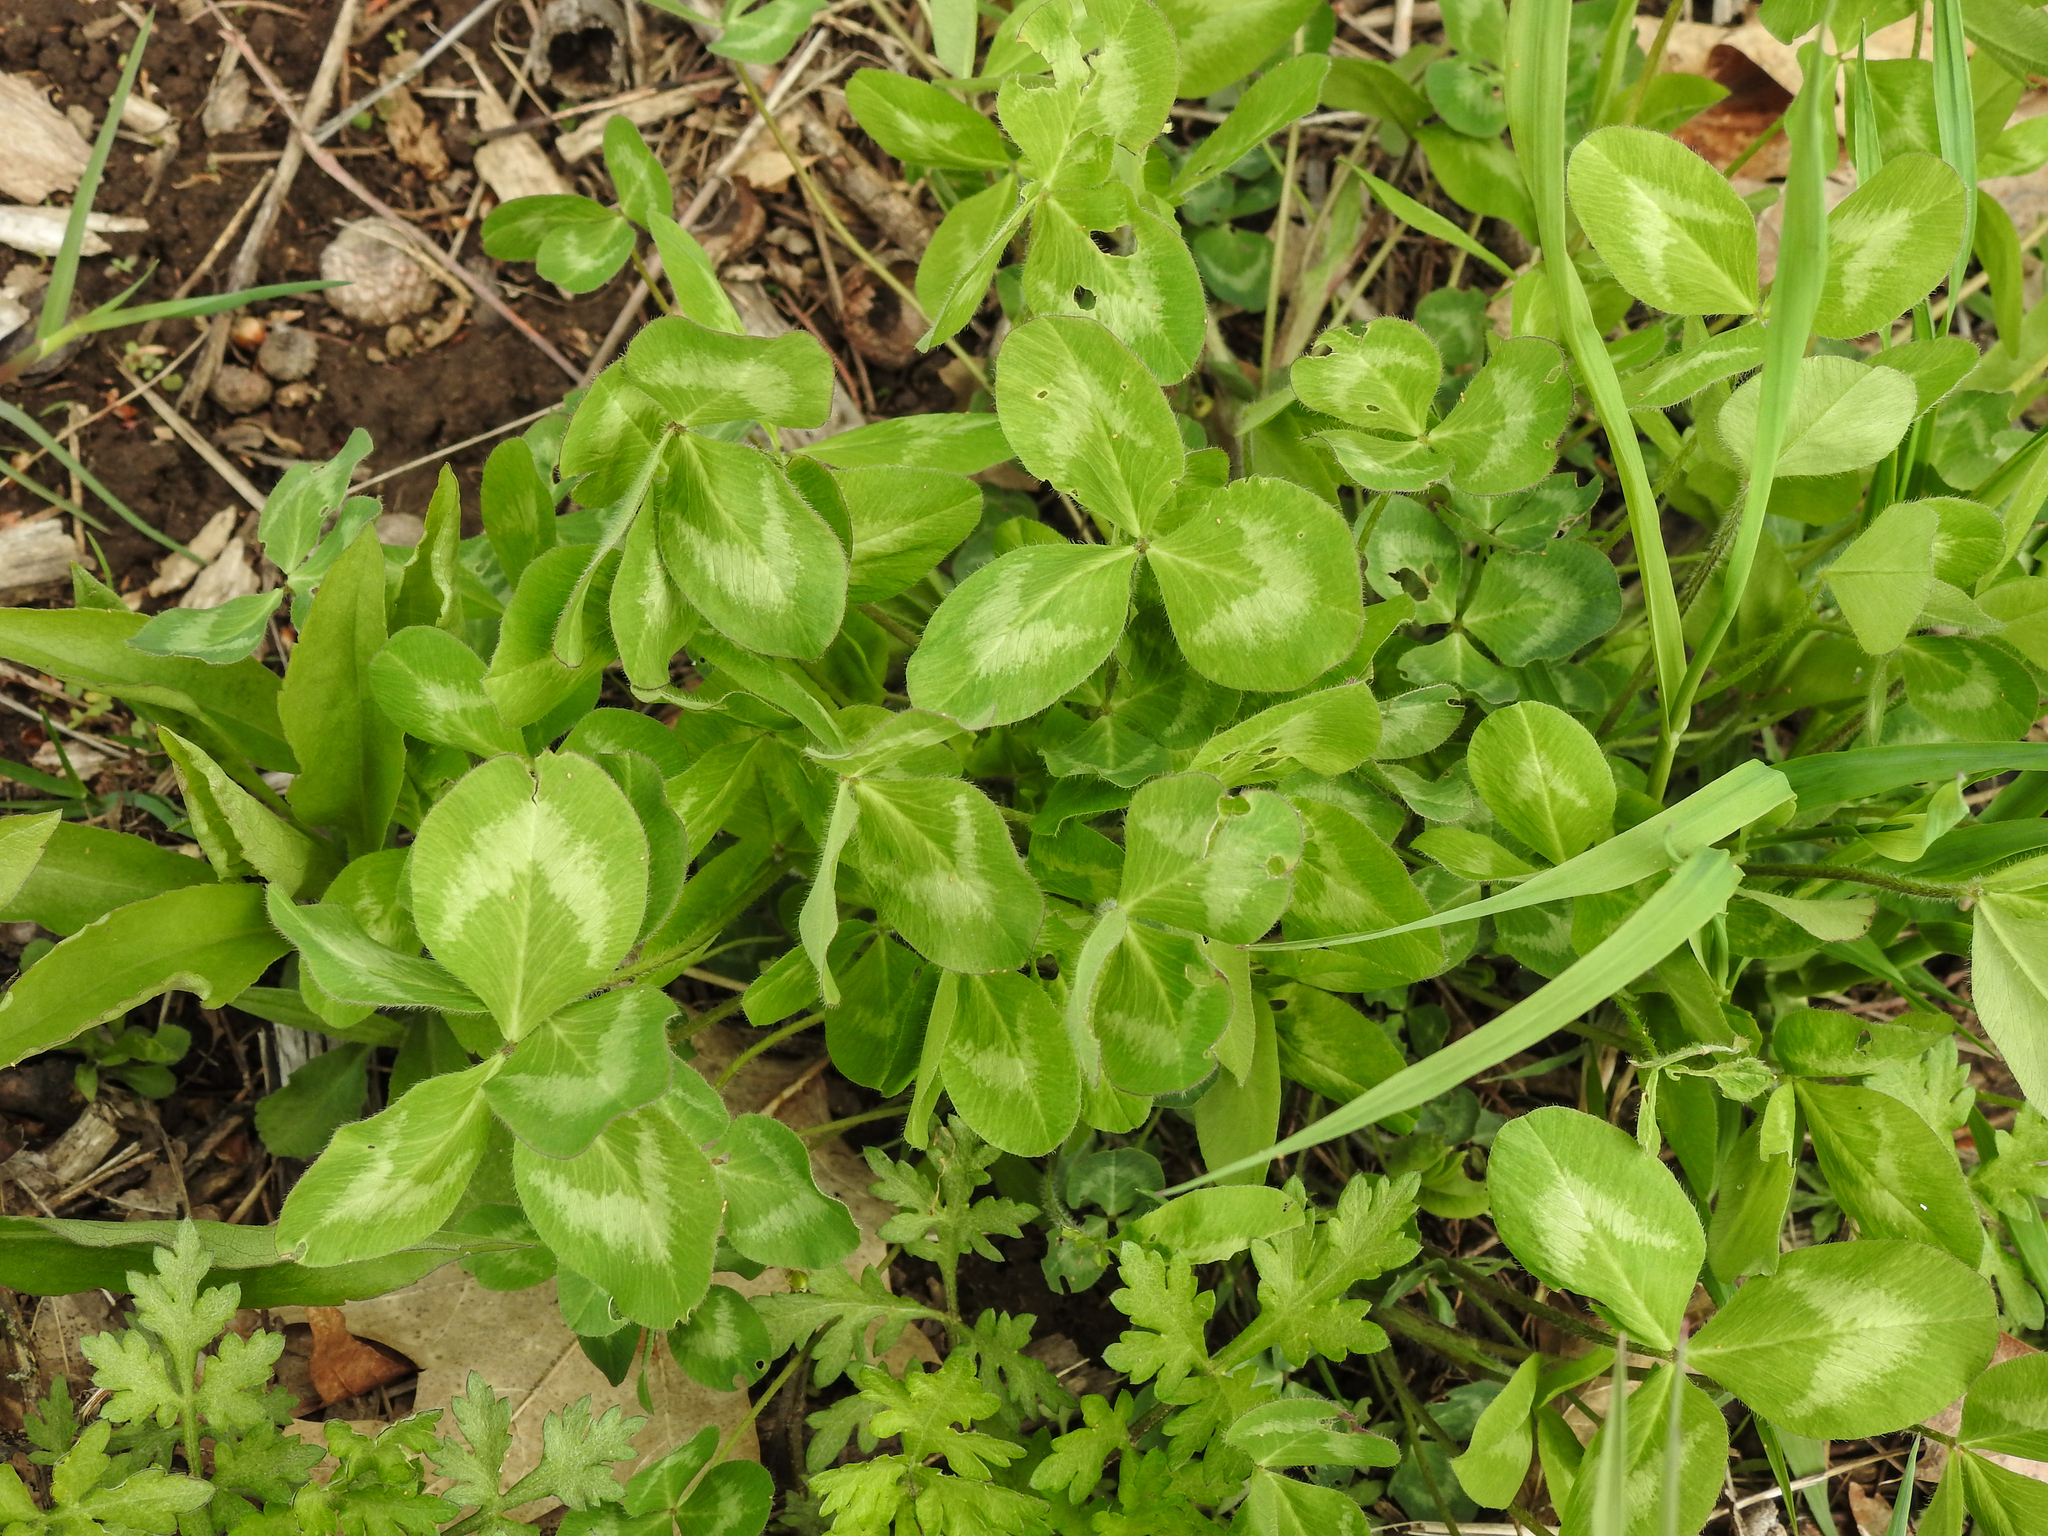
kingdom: Plantae
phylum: Tracheophyta
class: Magnoliopsida
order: Fabales
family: Fabaceae
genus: Trifolium
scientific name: Trifolium pratense
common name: Red clover
